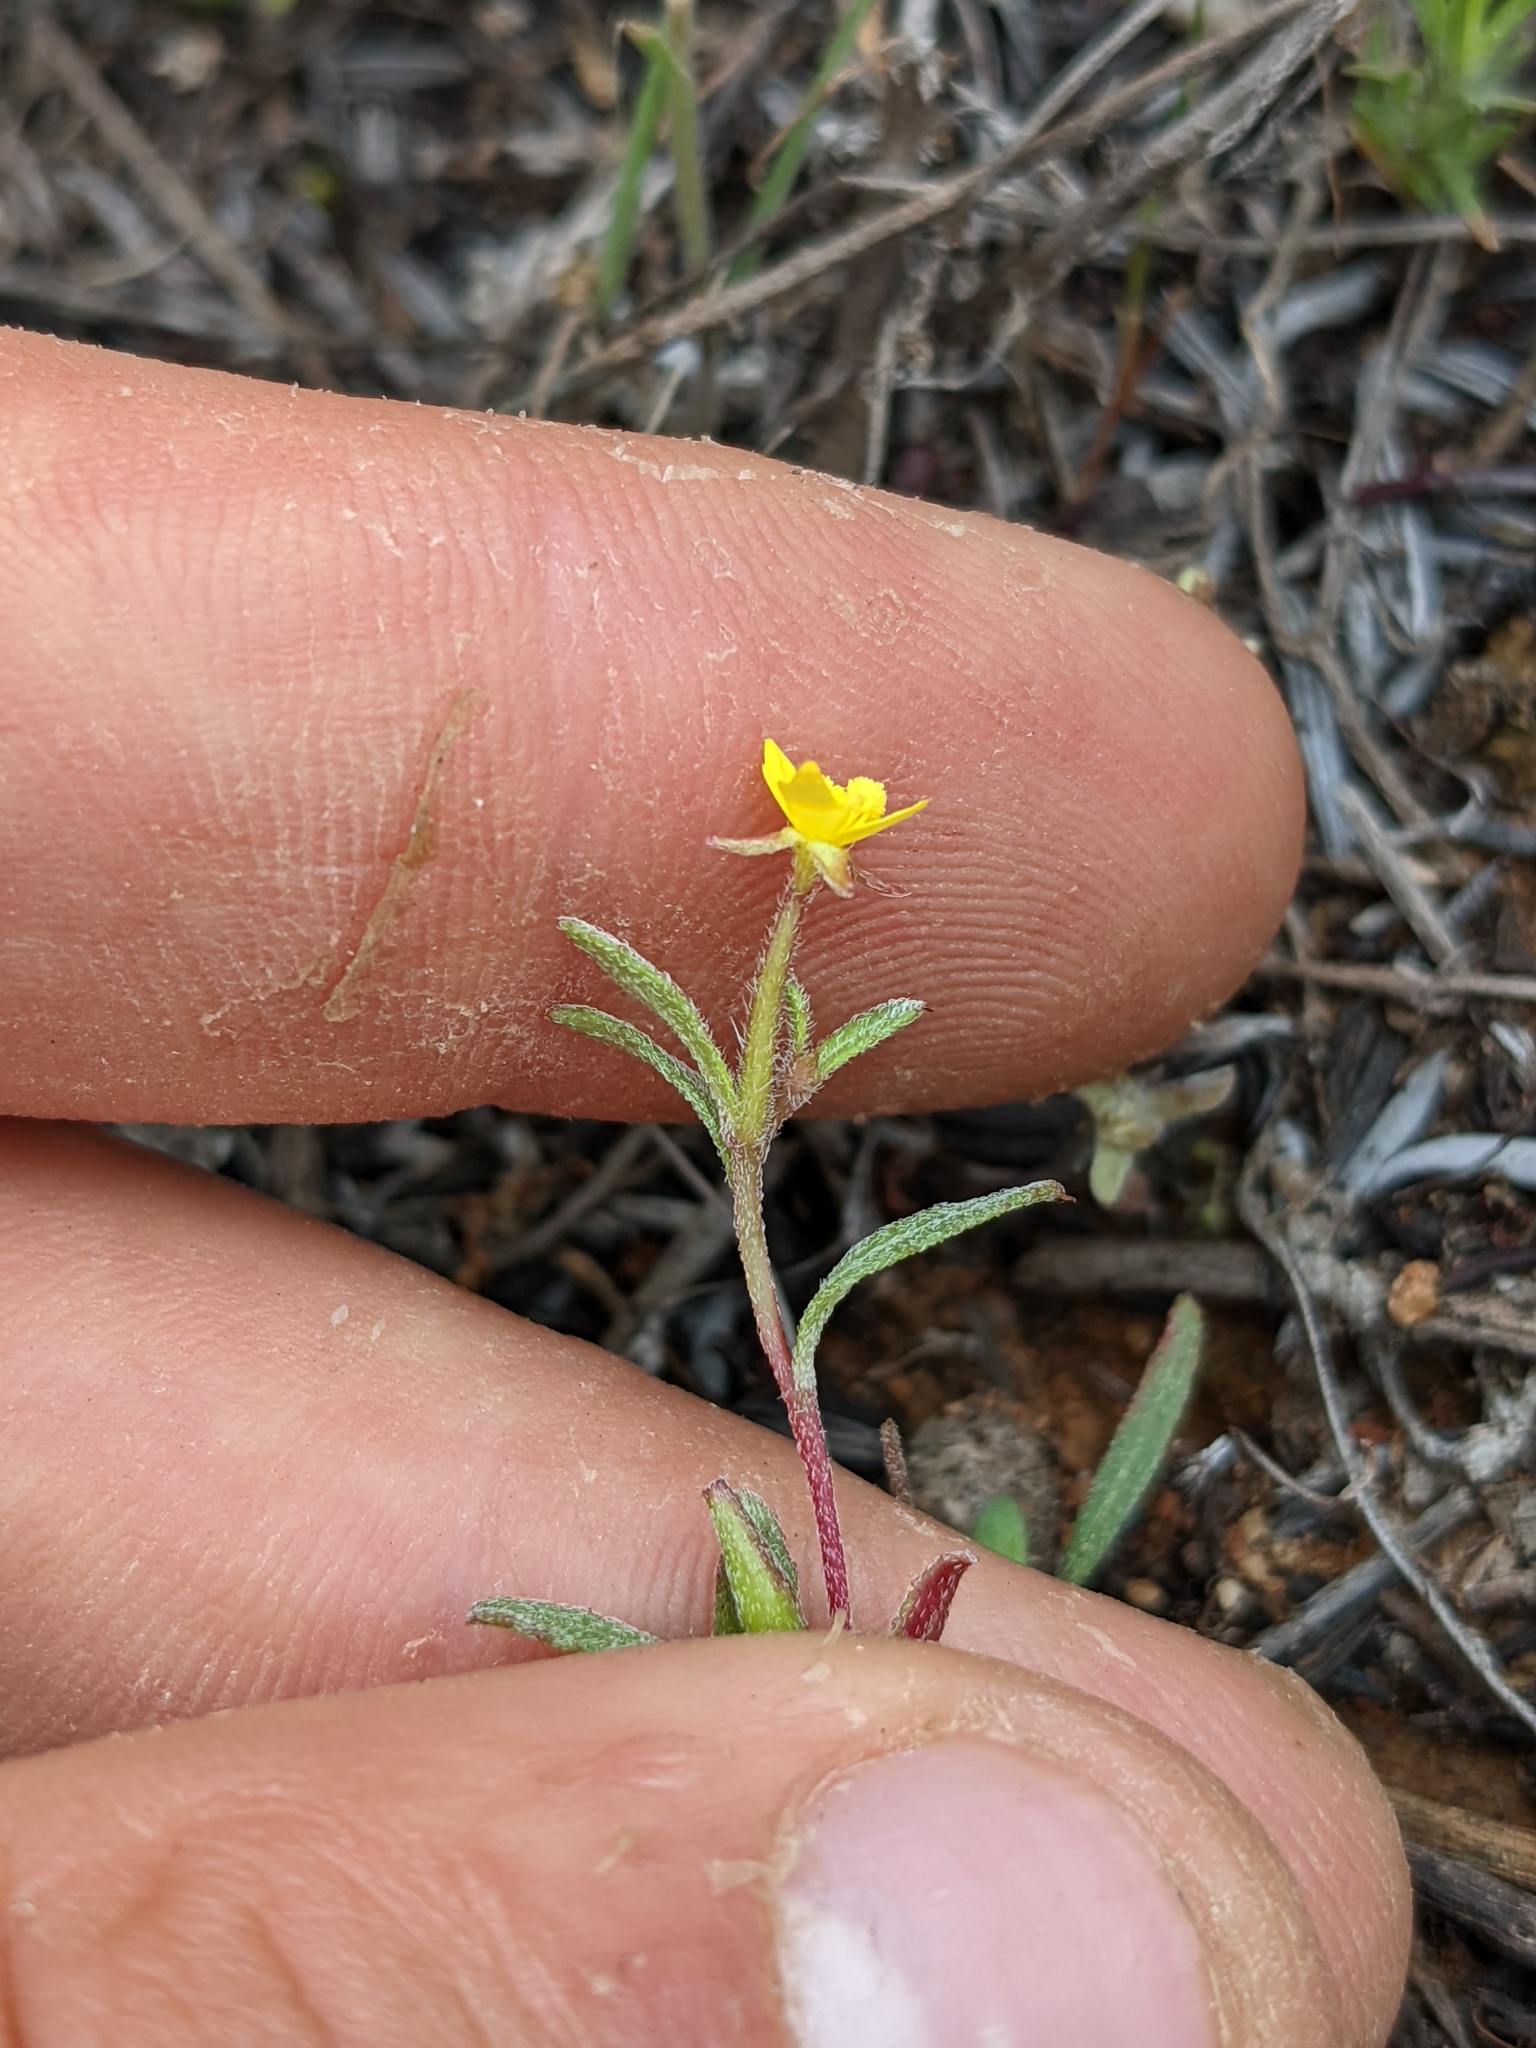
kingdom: Plantae
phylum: Tracheophyta
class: Magnoliopsida
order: Myrtales
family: Onagraceae
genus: Camissonia
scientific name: Camissonia strigulosa
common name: Contorted-primrose
